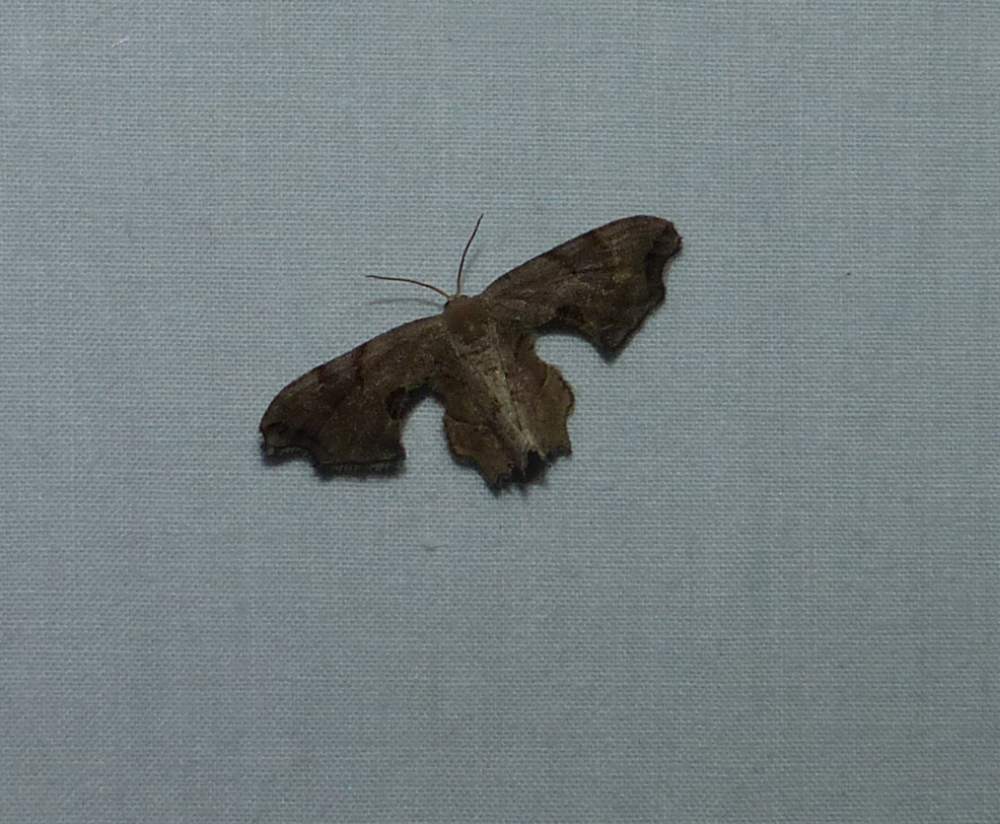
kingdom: Animalia
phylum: Arthropoda
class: Insecta
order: Lepidoptera
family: Uraniidae
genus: Epiplema
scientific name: Epiplema Calledapteryx dryopterata
